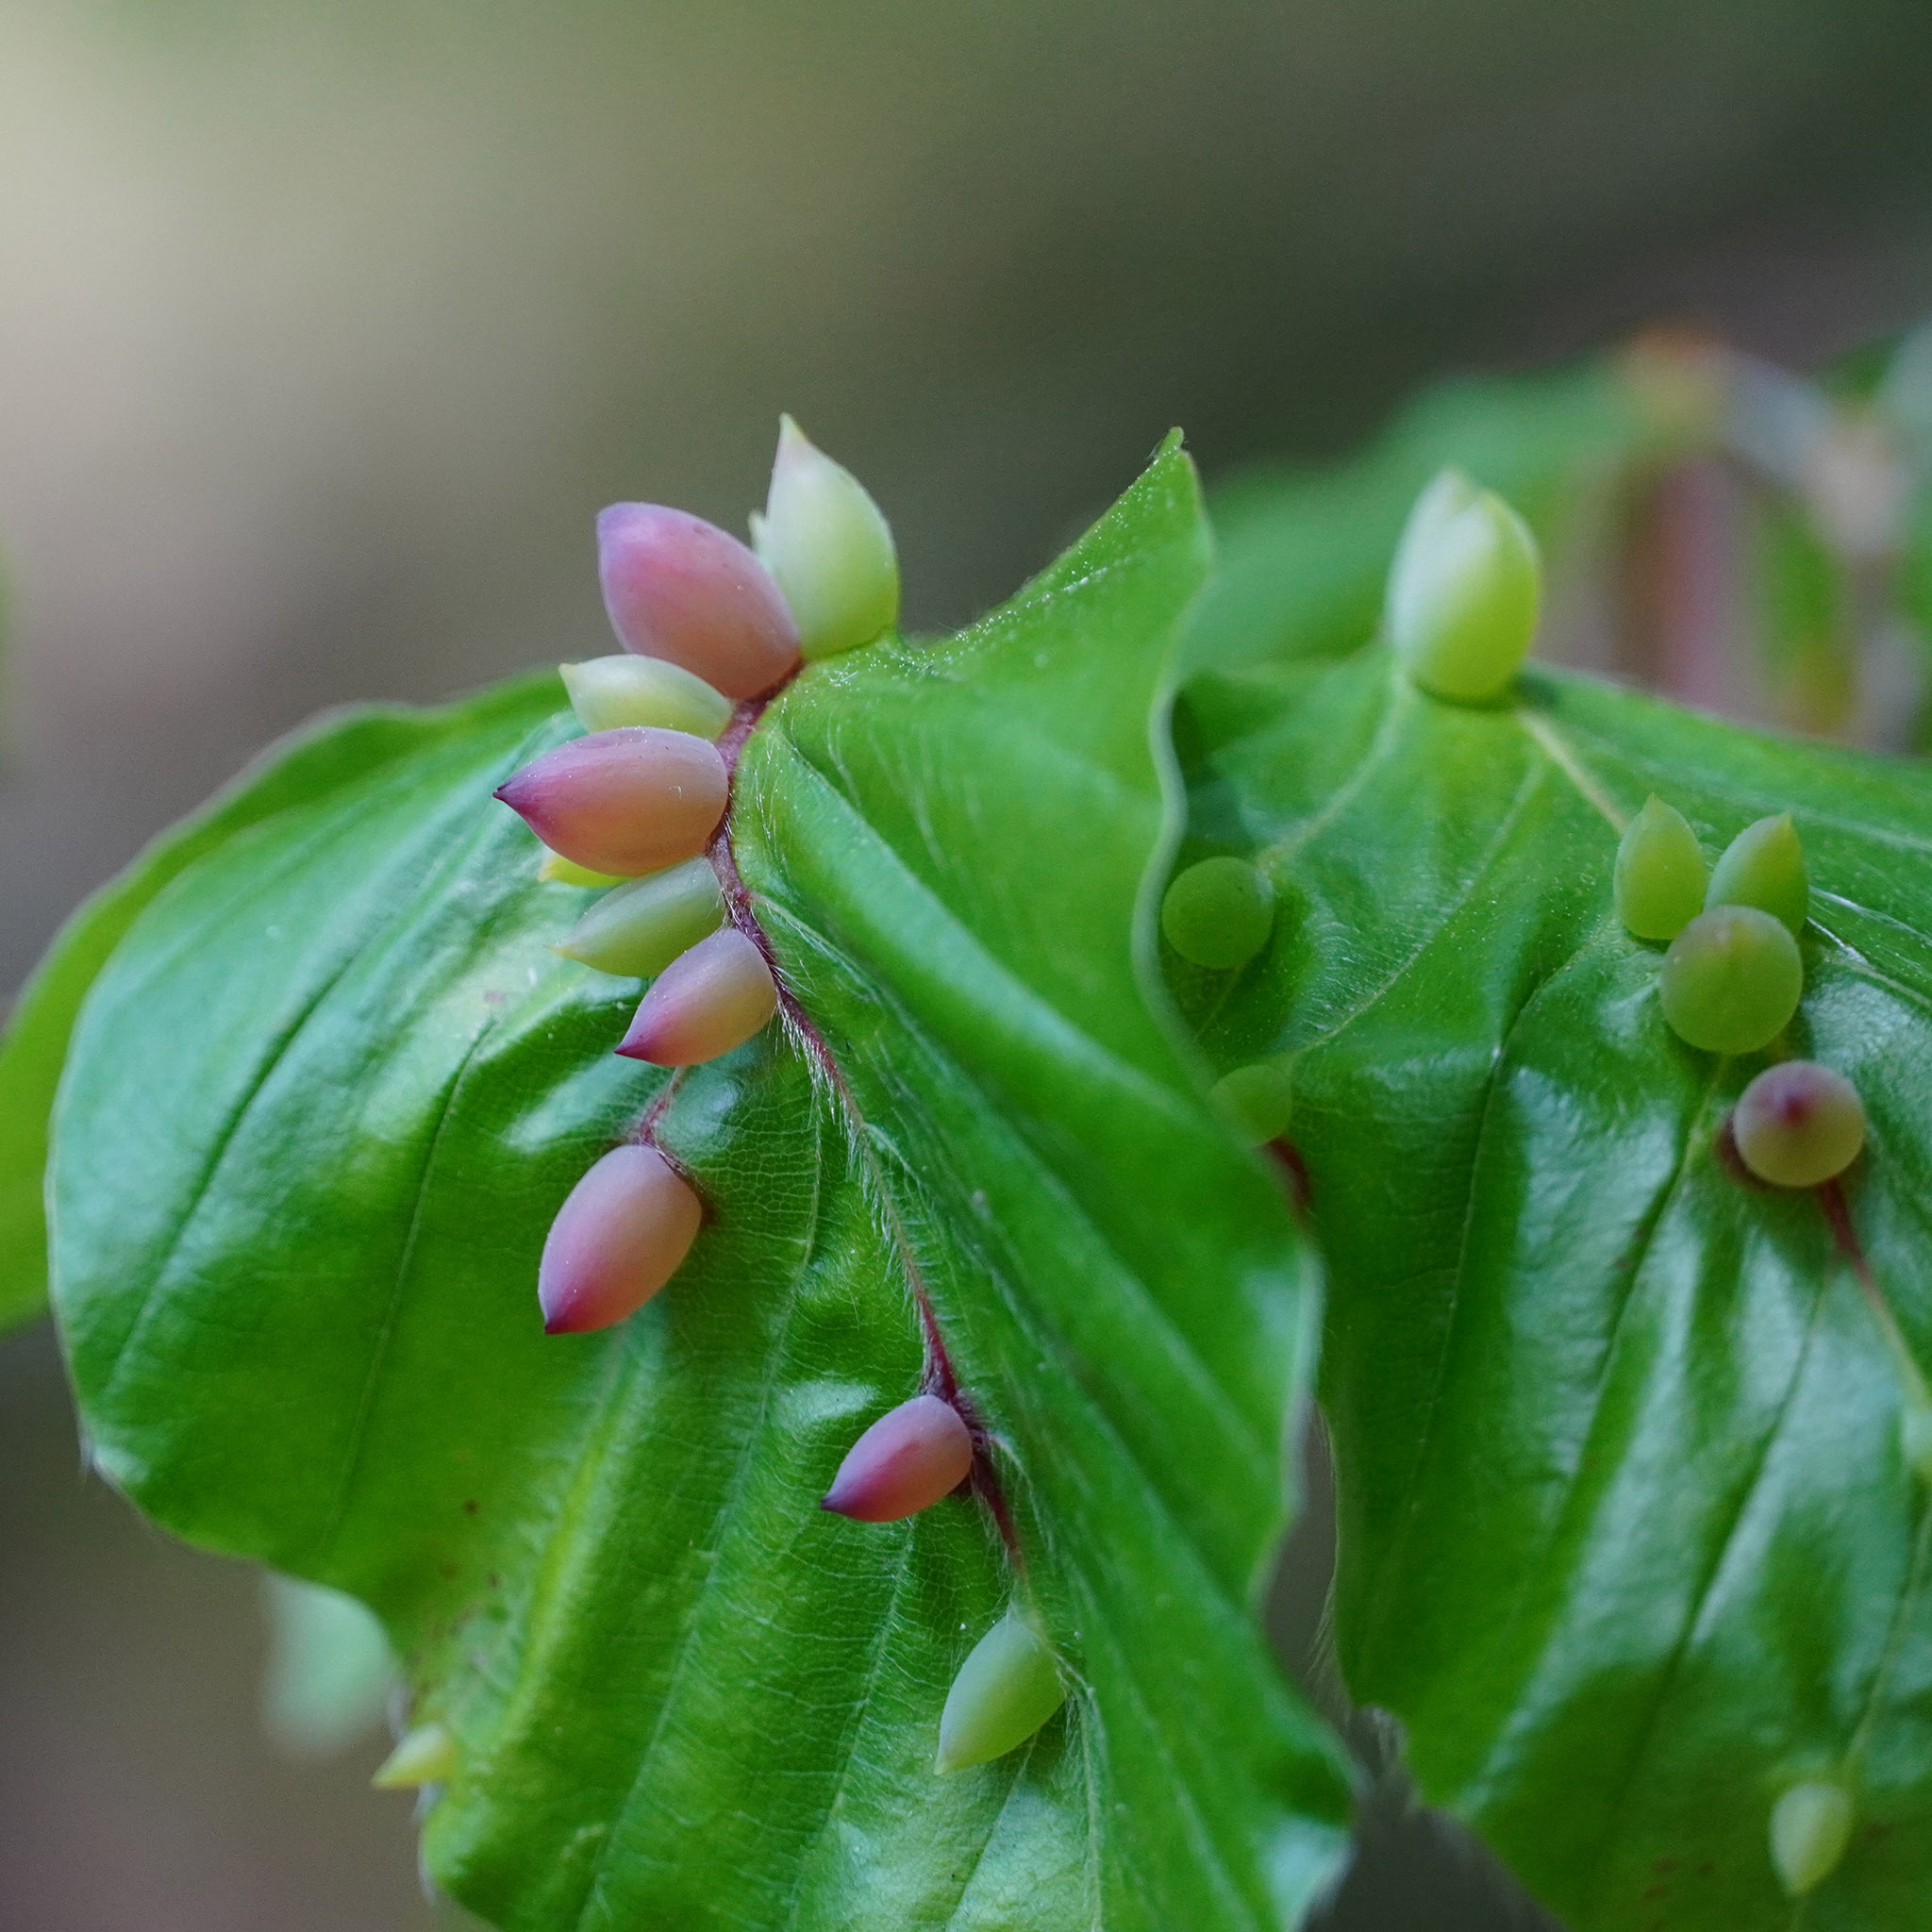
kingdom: Animalia
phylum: Arthropoda
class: Insecta
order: Diptera
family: Cecidomyiidae
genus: Mikiola
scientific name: Mikiola fagi
